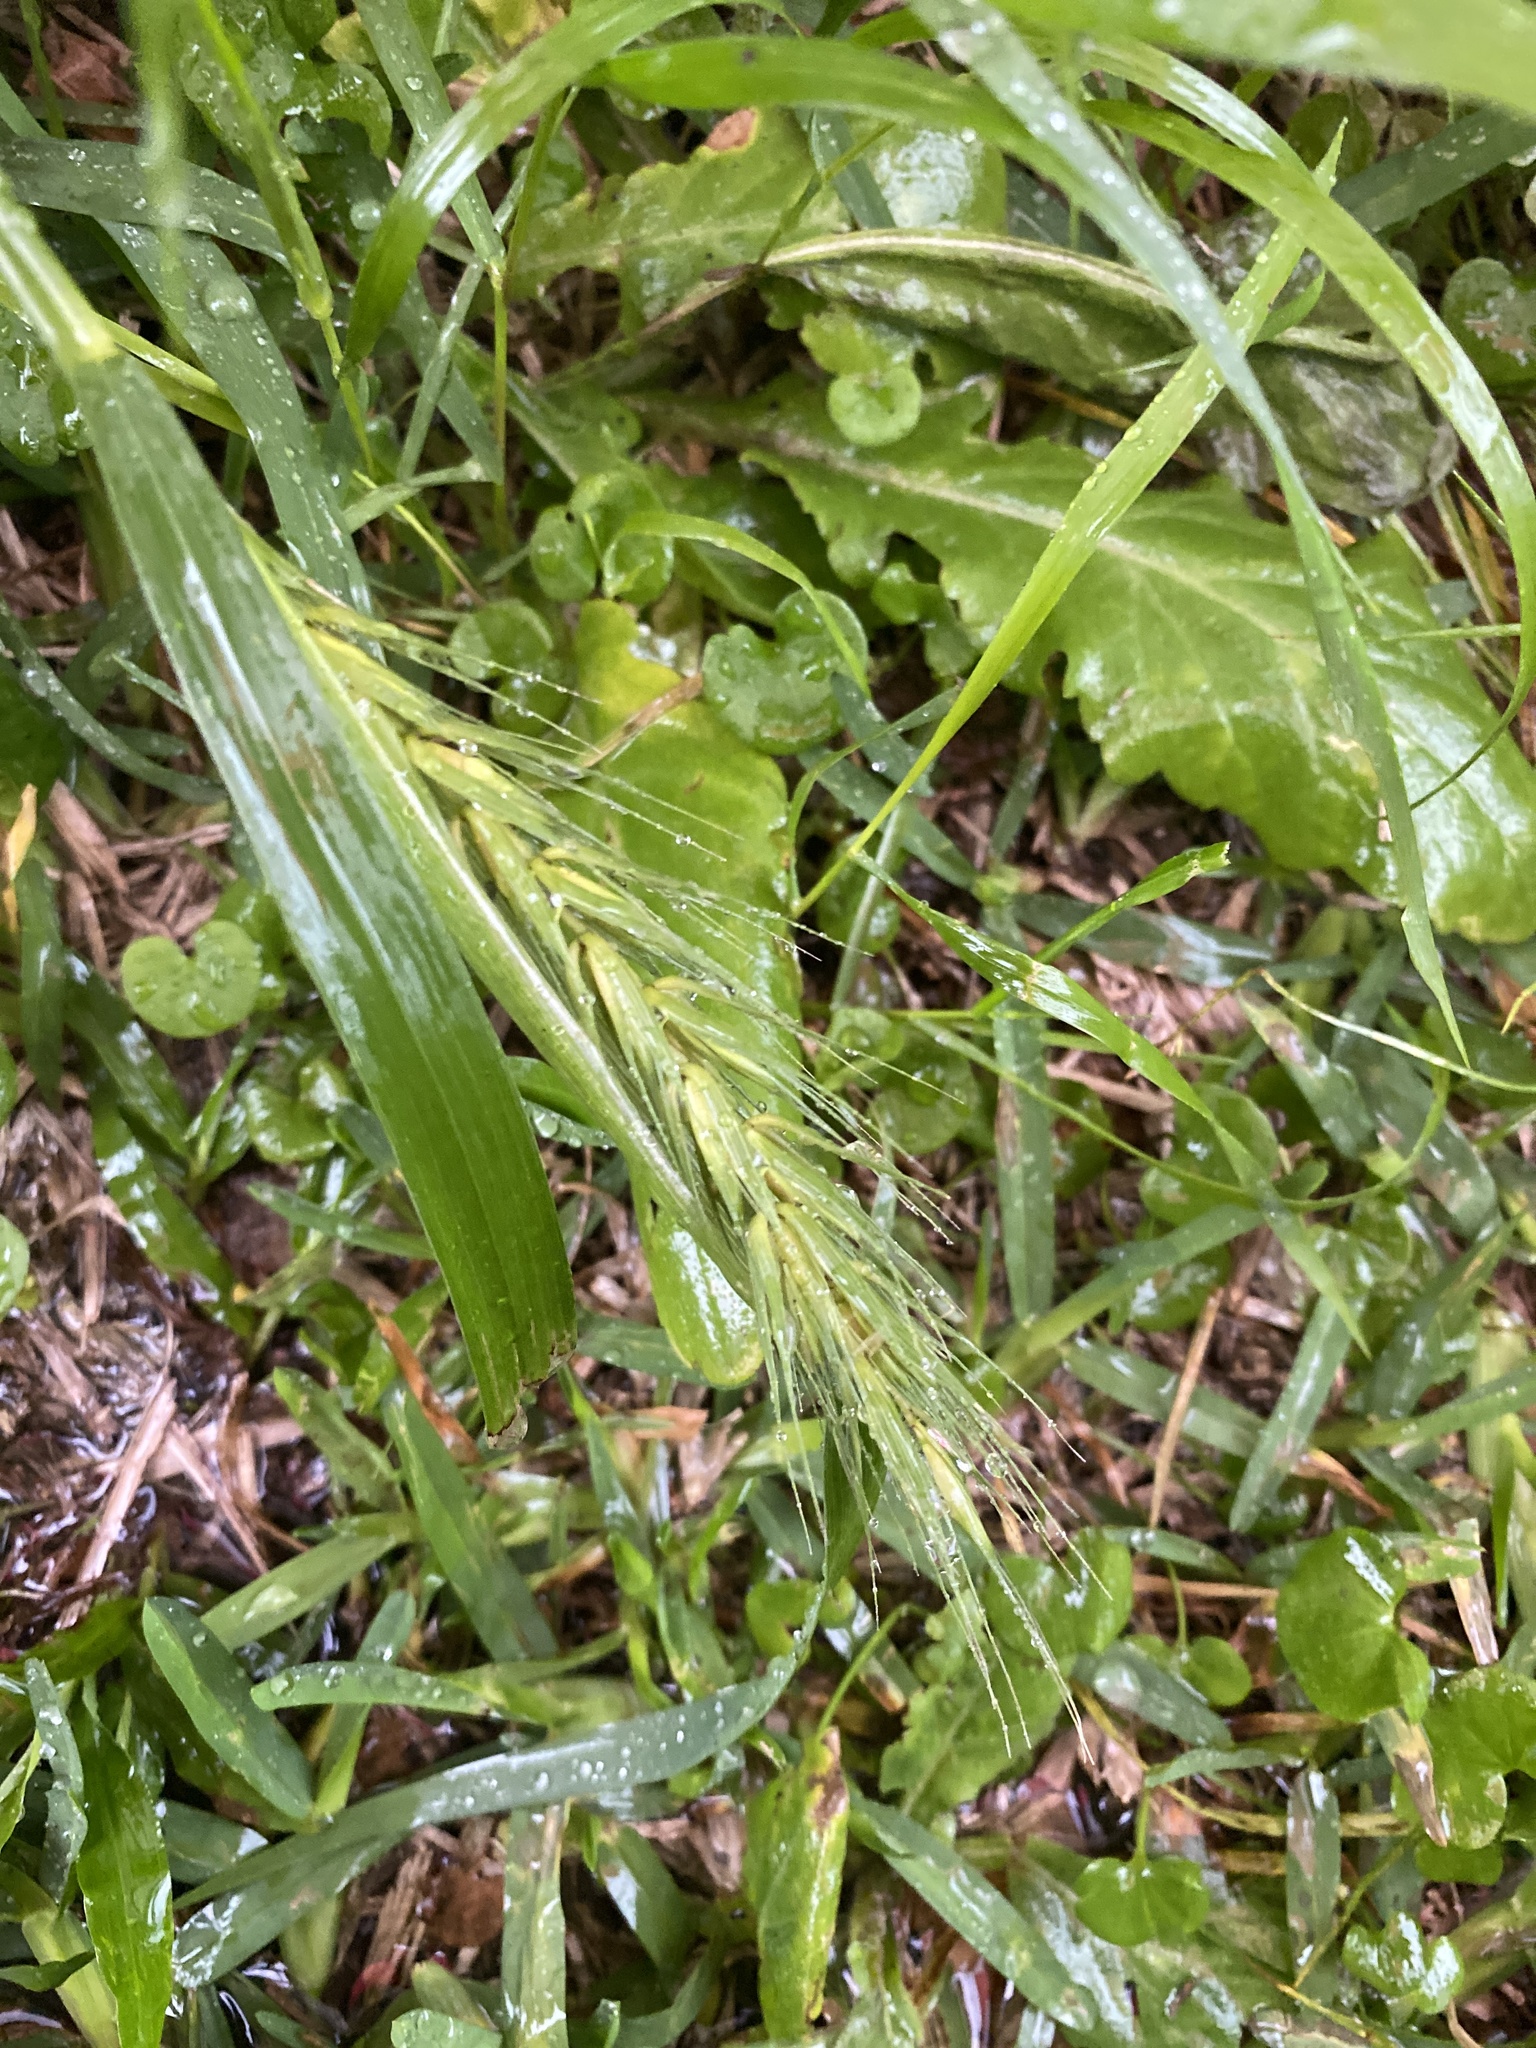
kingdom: Plantae
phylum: Tracheophyta
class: Liliopsida
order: Poales
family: Poaceae
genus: Elymus
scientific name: Elymus virginicus
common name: Common eastern wildrye
